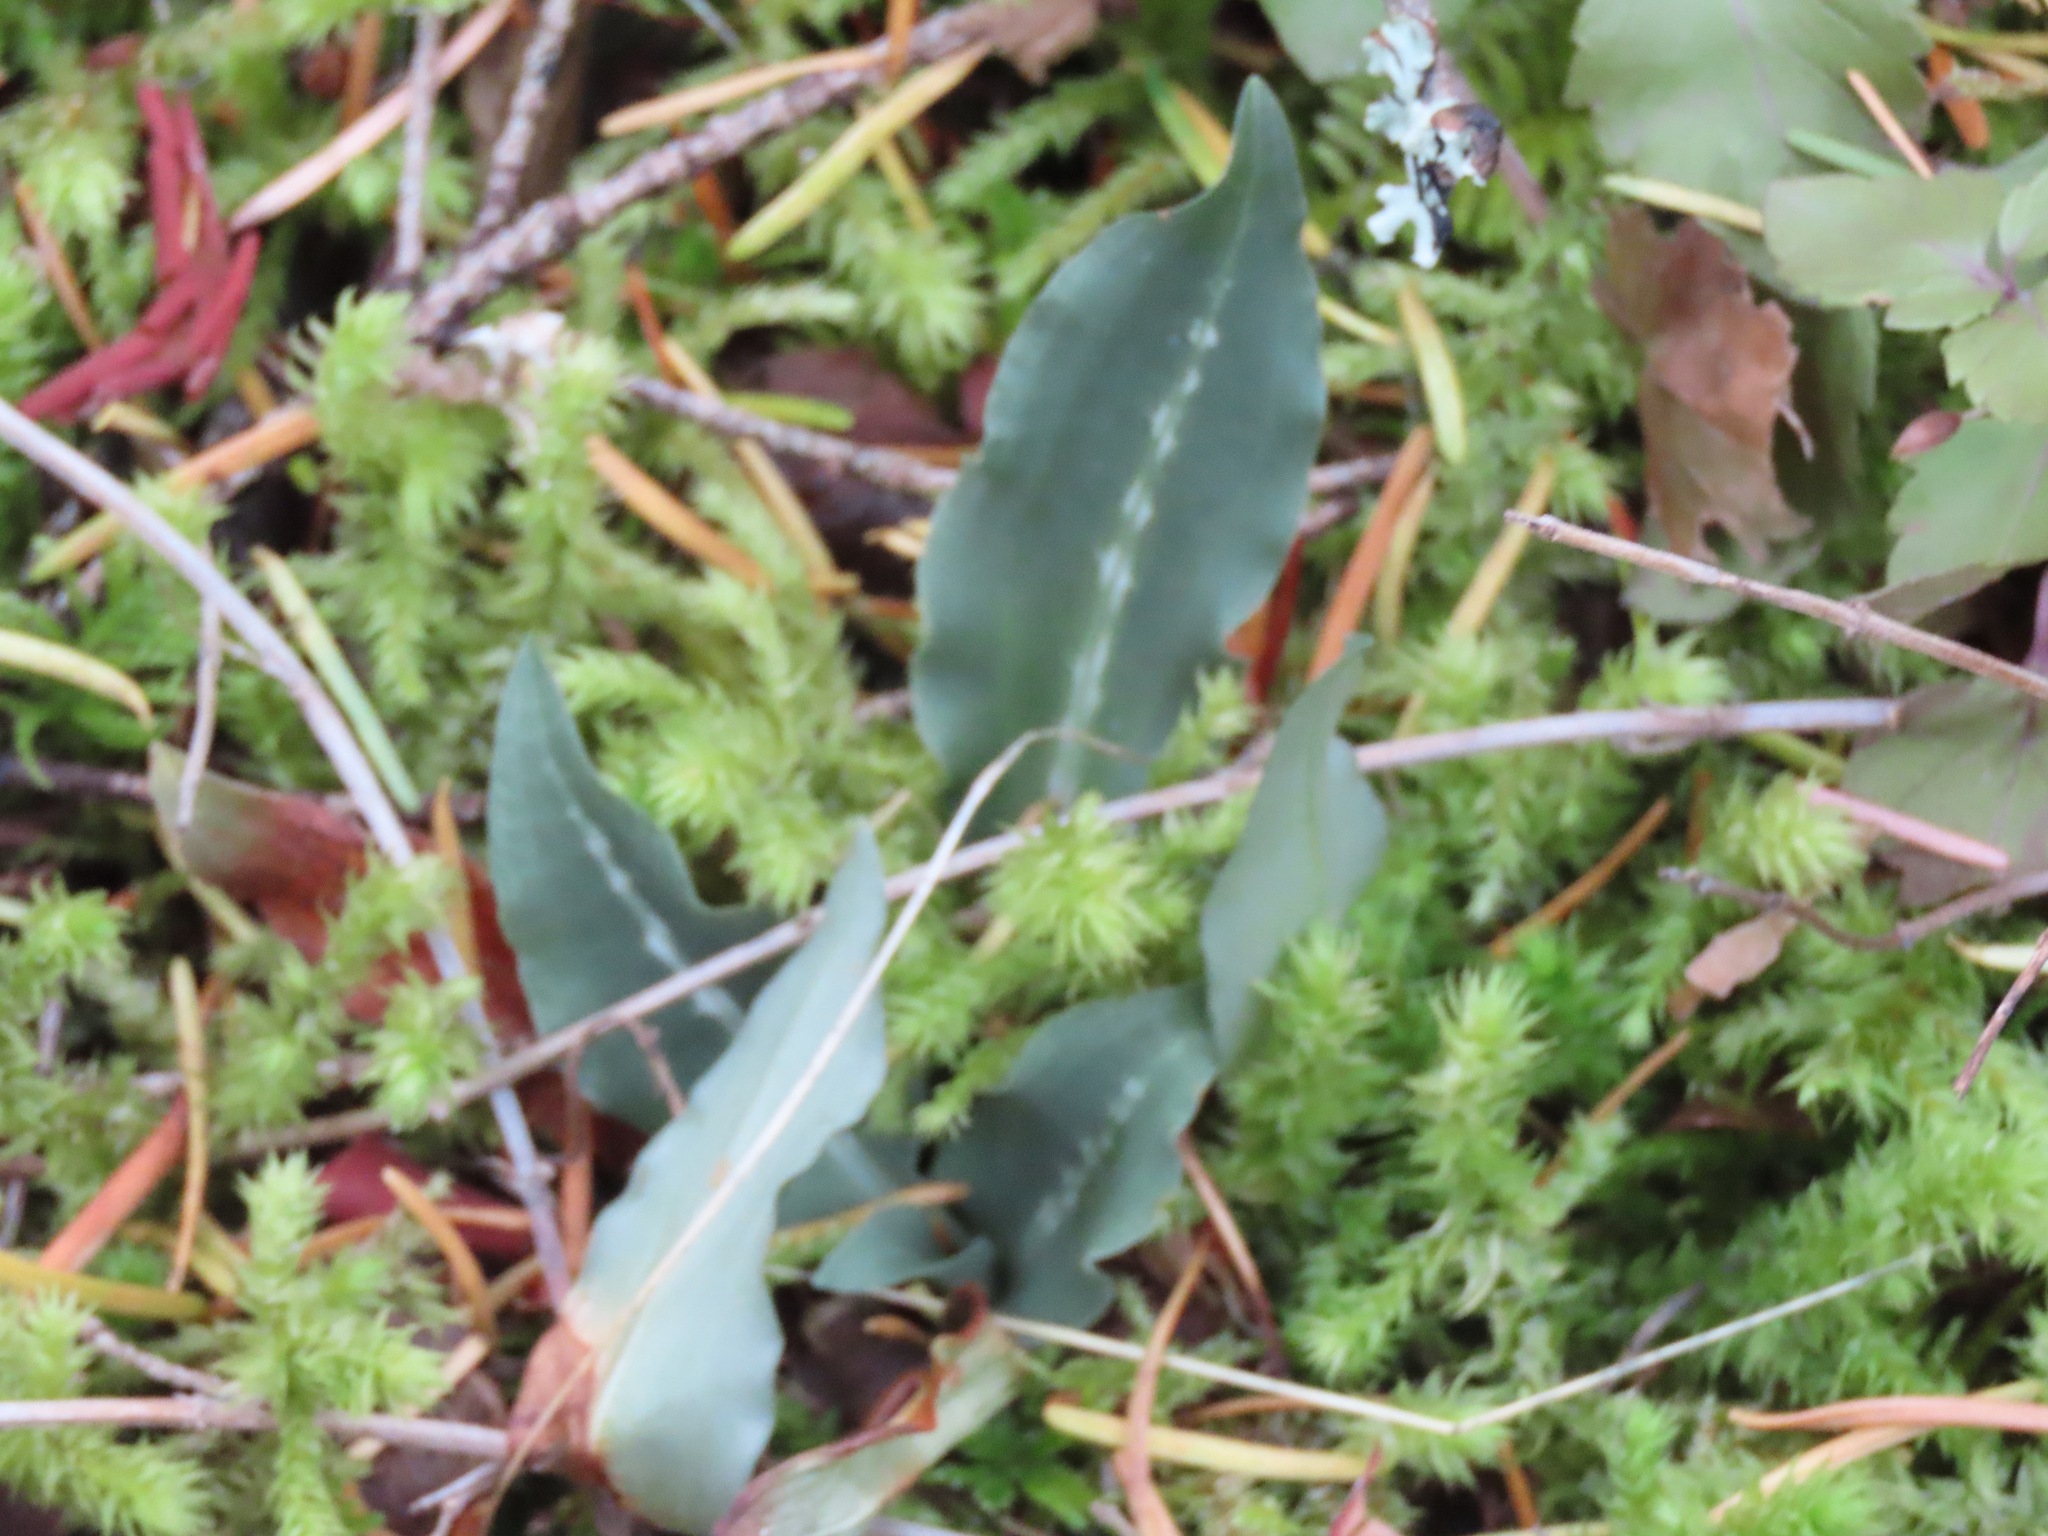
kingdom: Plantae
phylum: Tracheophyta
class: Liliopsida
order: Asparagales
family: Orchidaceae
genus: Goodyera
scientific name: Goodyera oblongifolia
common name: Giant rattlesnake-plantain
